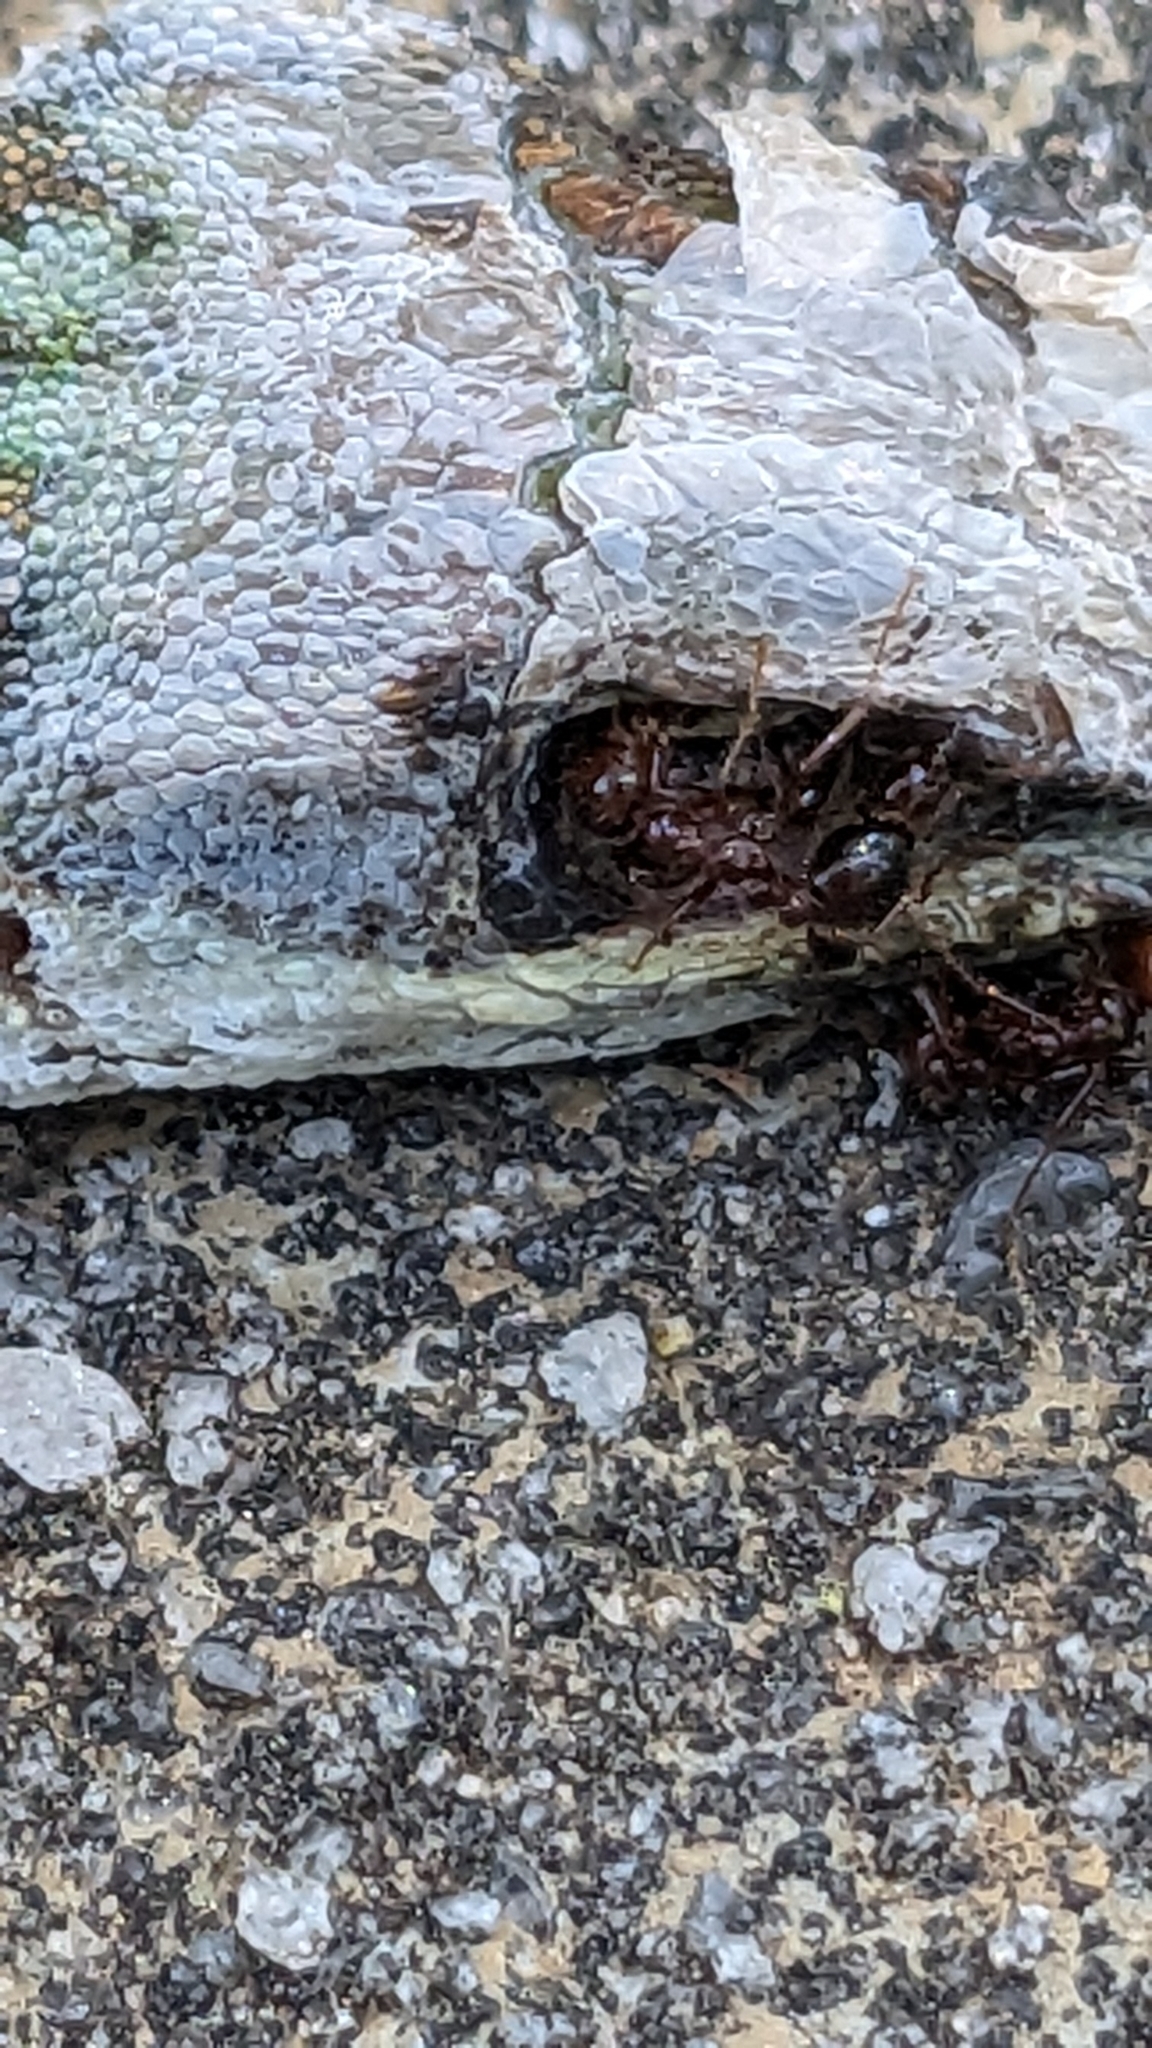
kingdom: Animalia
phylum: Chordata
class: Squamata
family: Dactyloidae
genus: Anolis
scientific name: Anolis carolinensis
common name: Green anole
